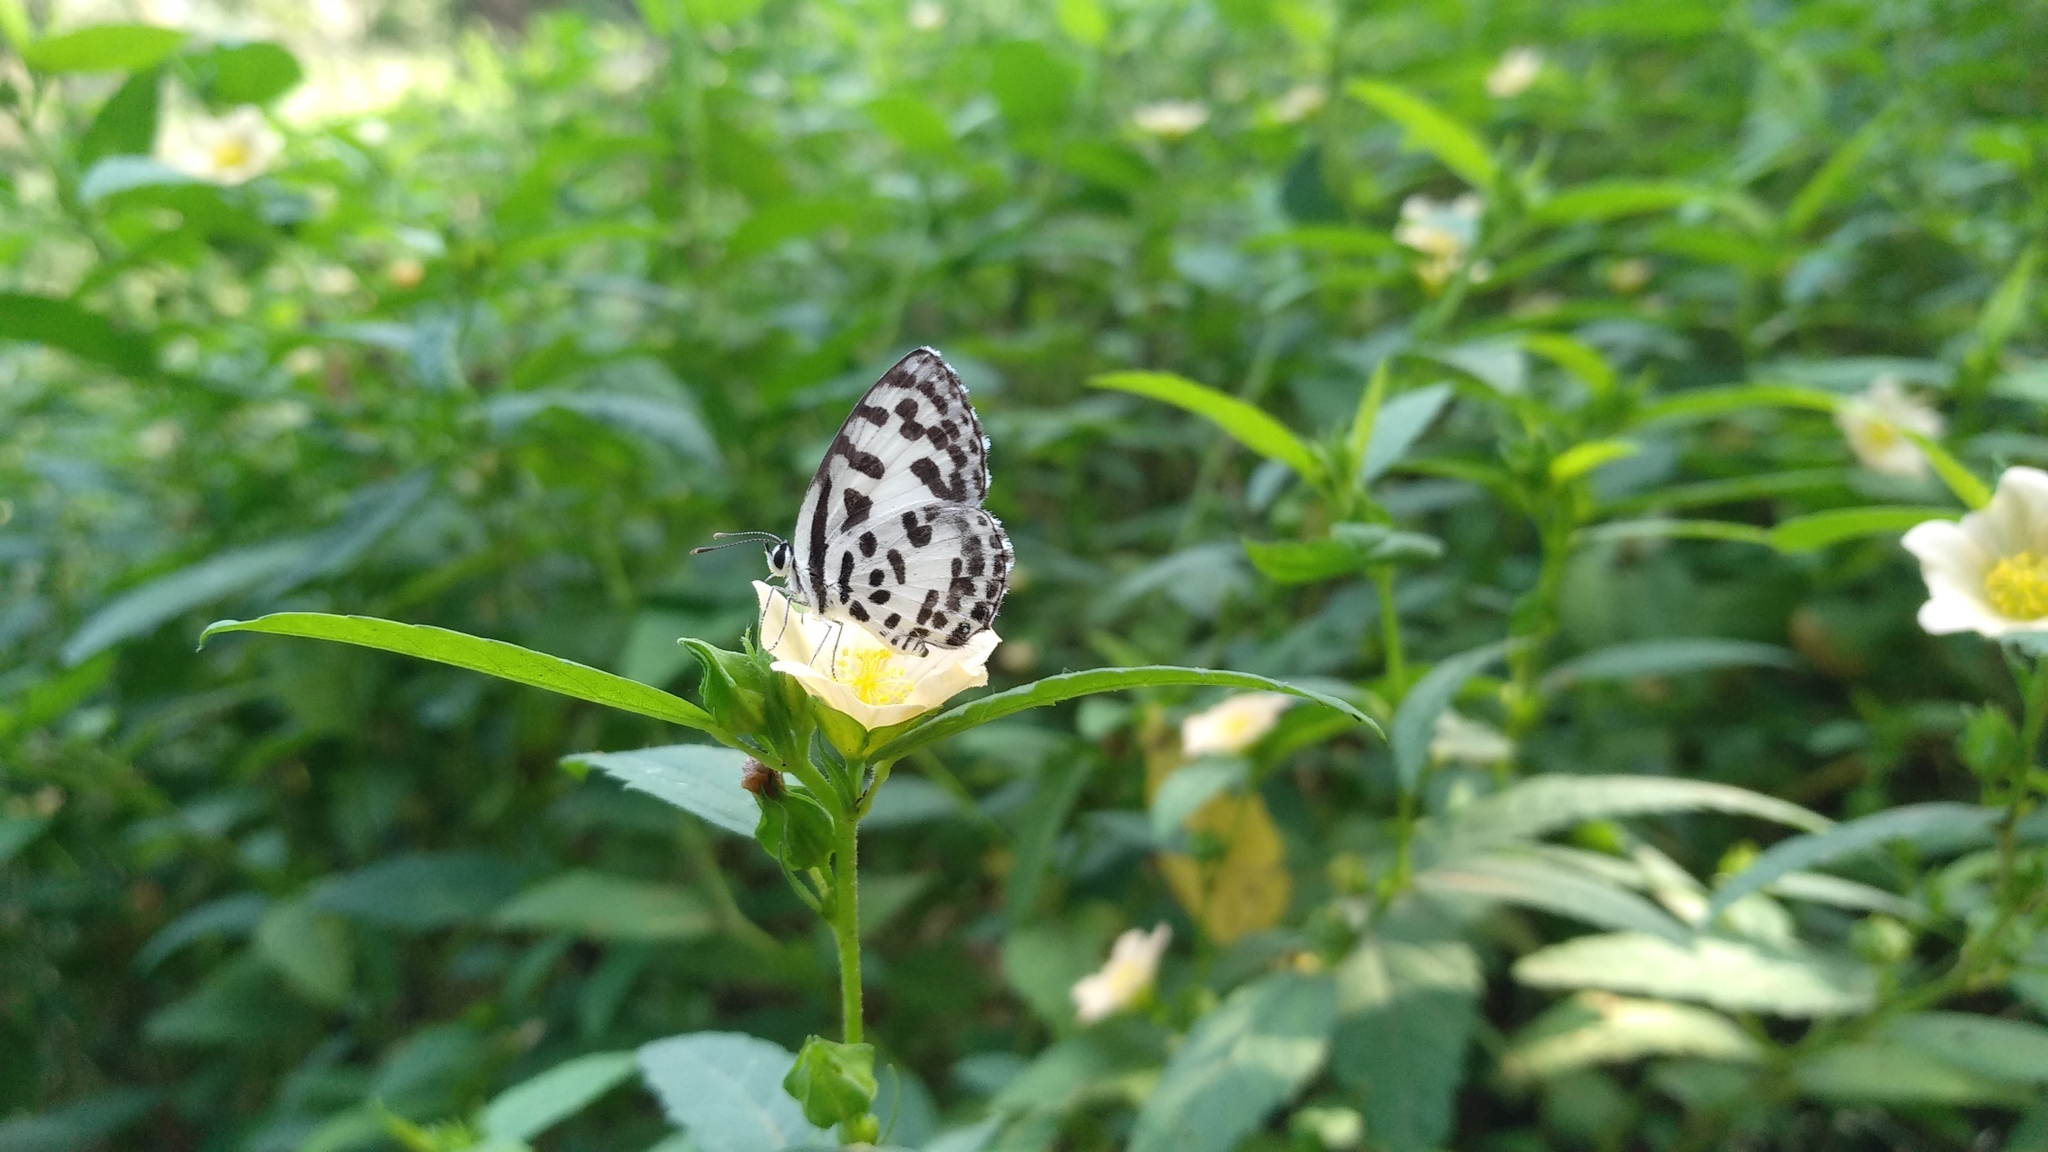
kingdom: Animalia
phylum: Arthropoda
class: Insecta
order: Lepidoptera
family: Lycaenidae
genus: Castalius
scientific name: Castalius rosimon
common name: Common pierrot
